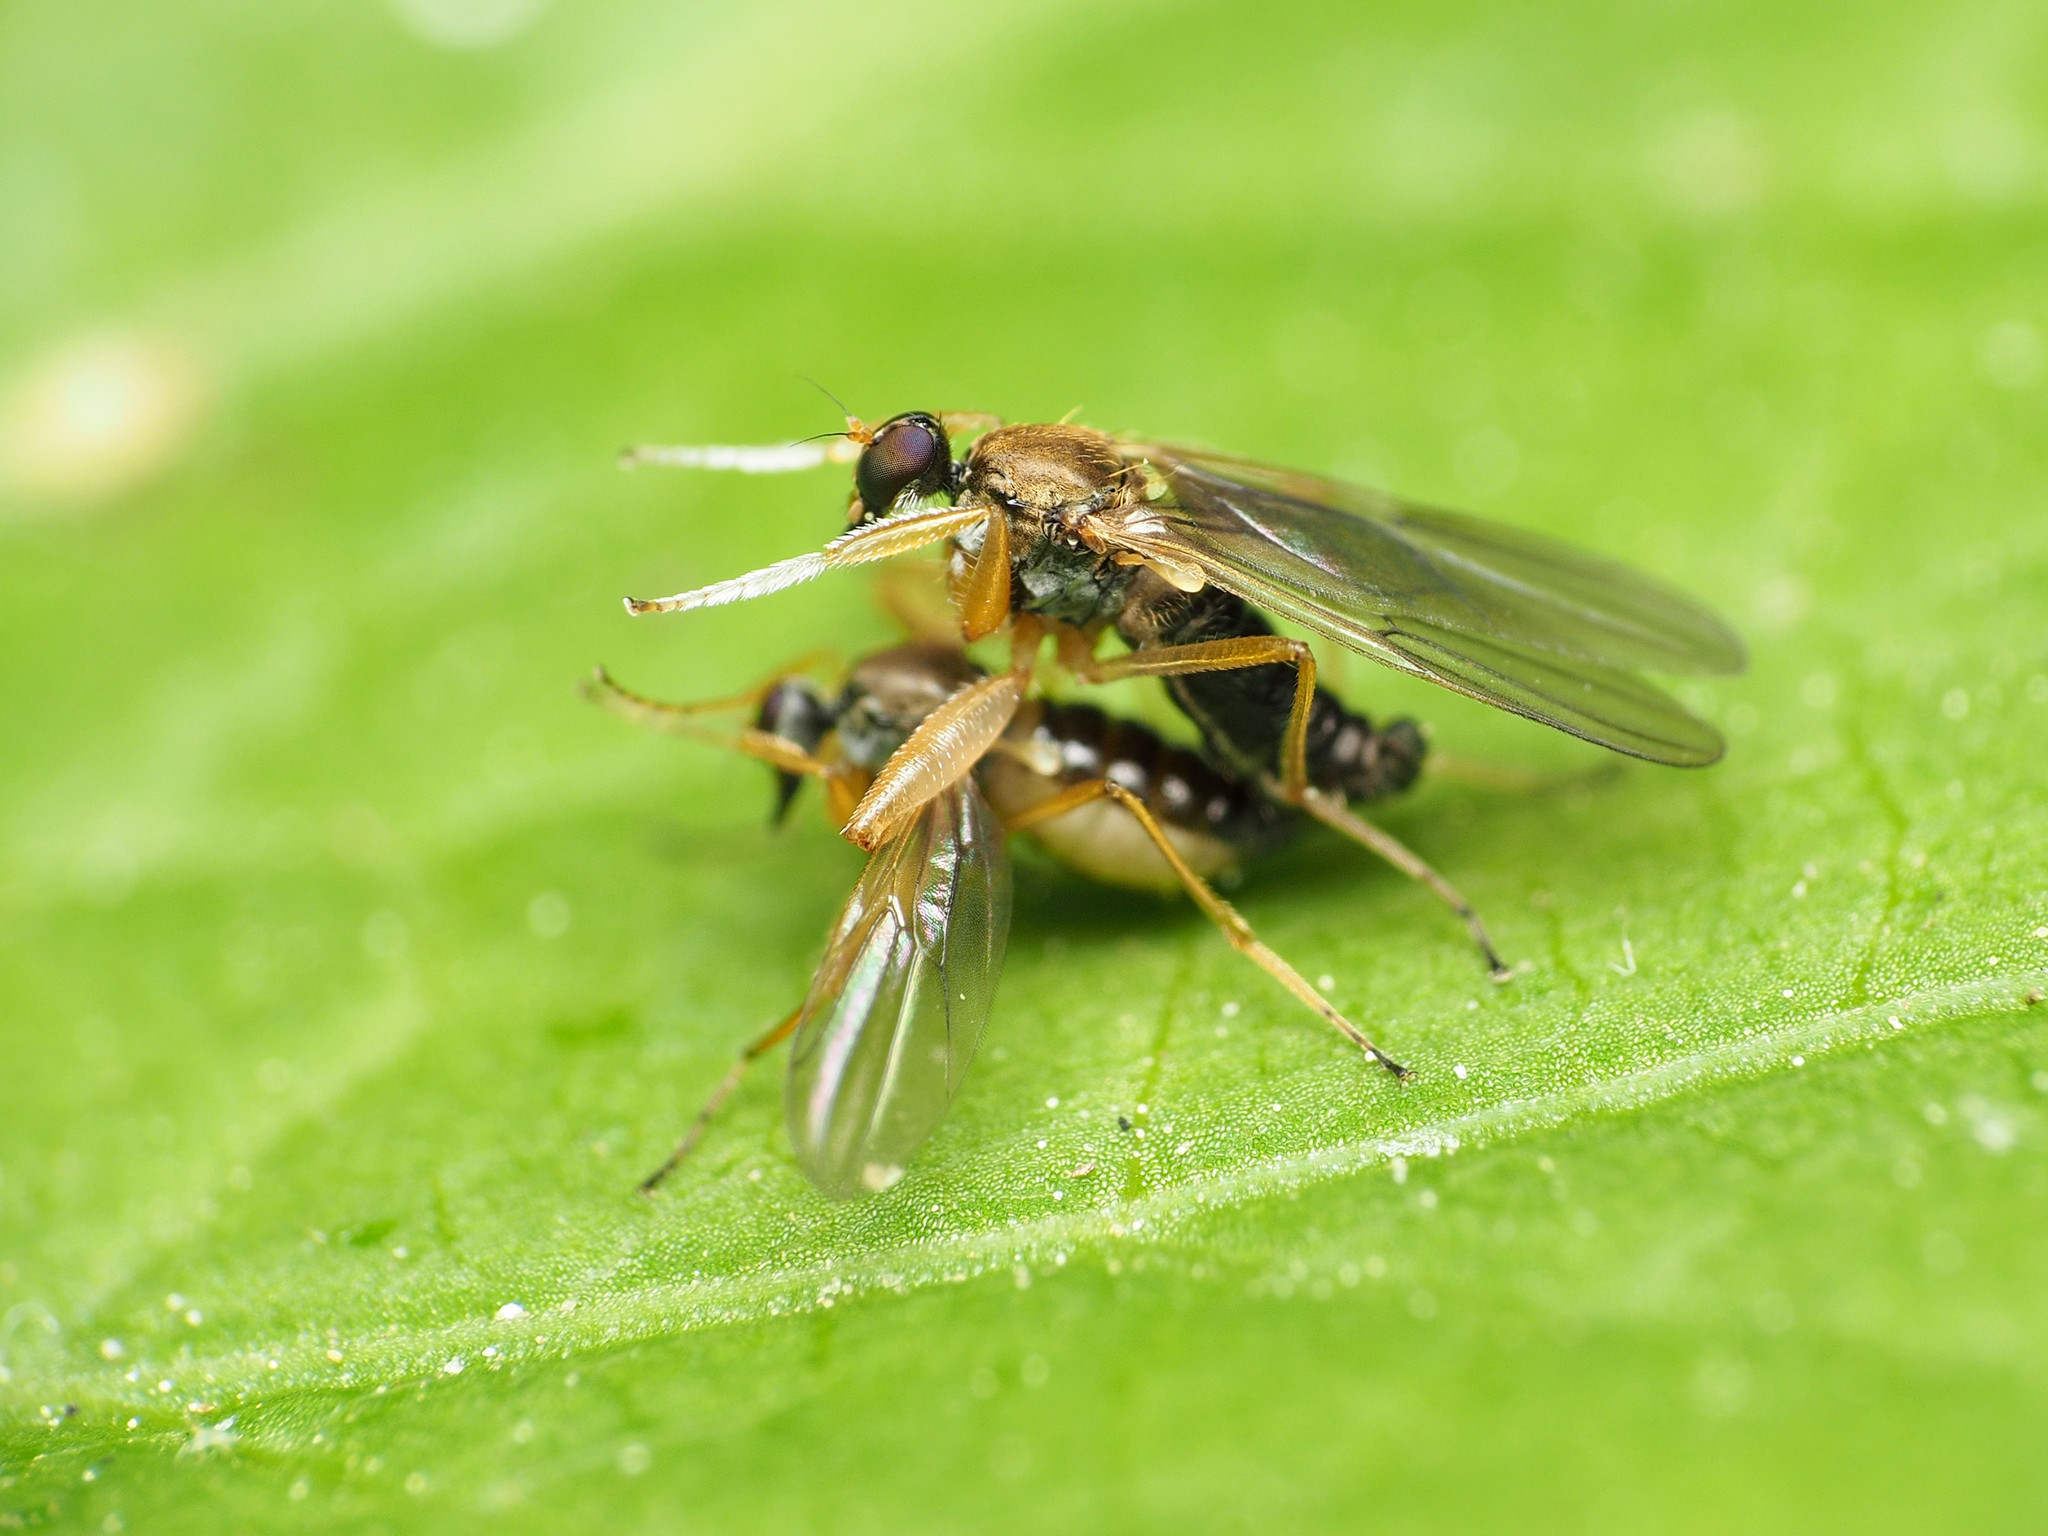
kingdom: Animalia
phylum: Arthropoda
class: Insecta
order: Diptera
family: Hybotidae
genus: Platypalpus
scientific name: Platypalpus discifer
